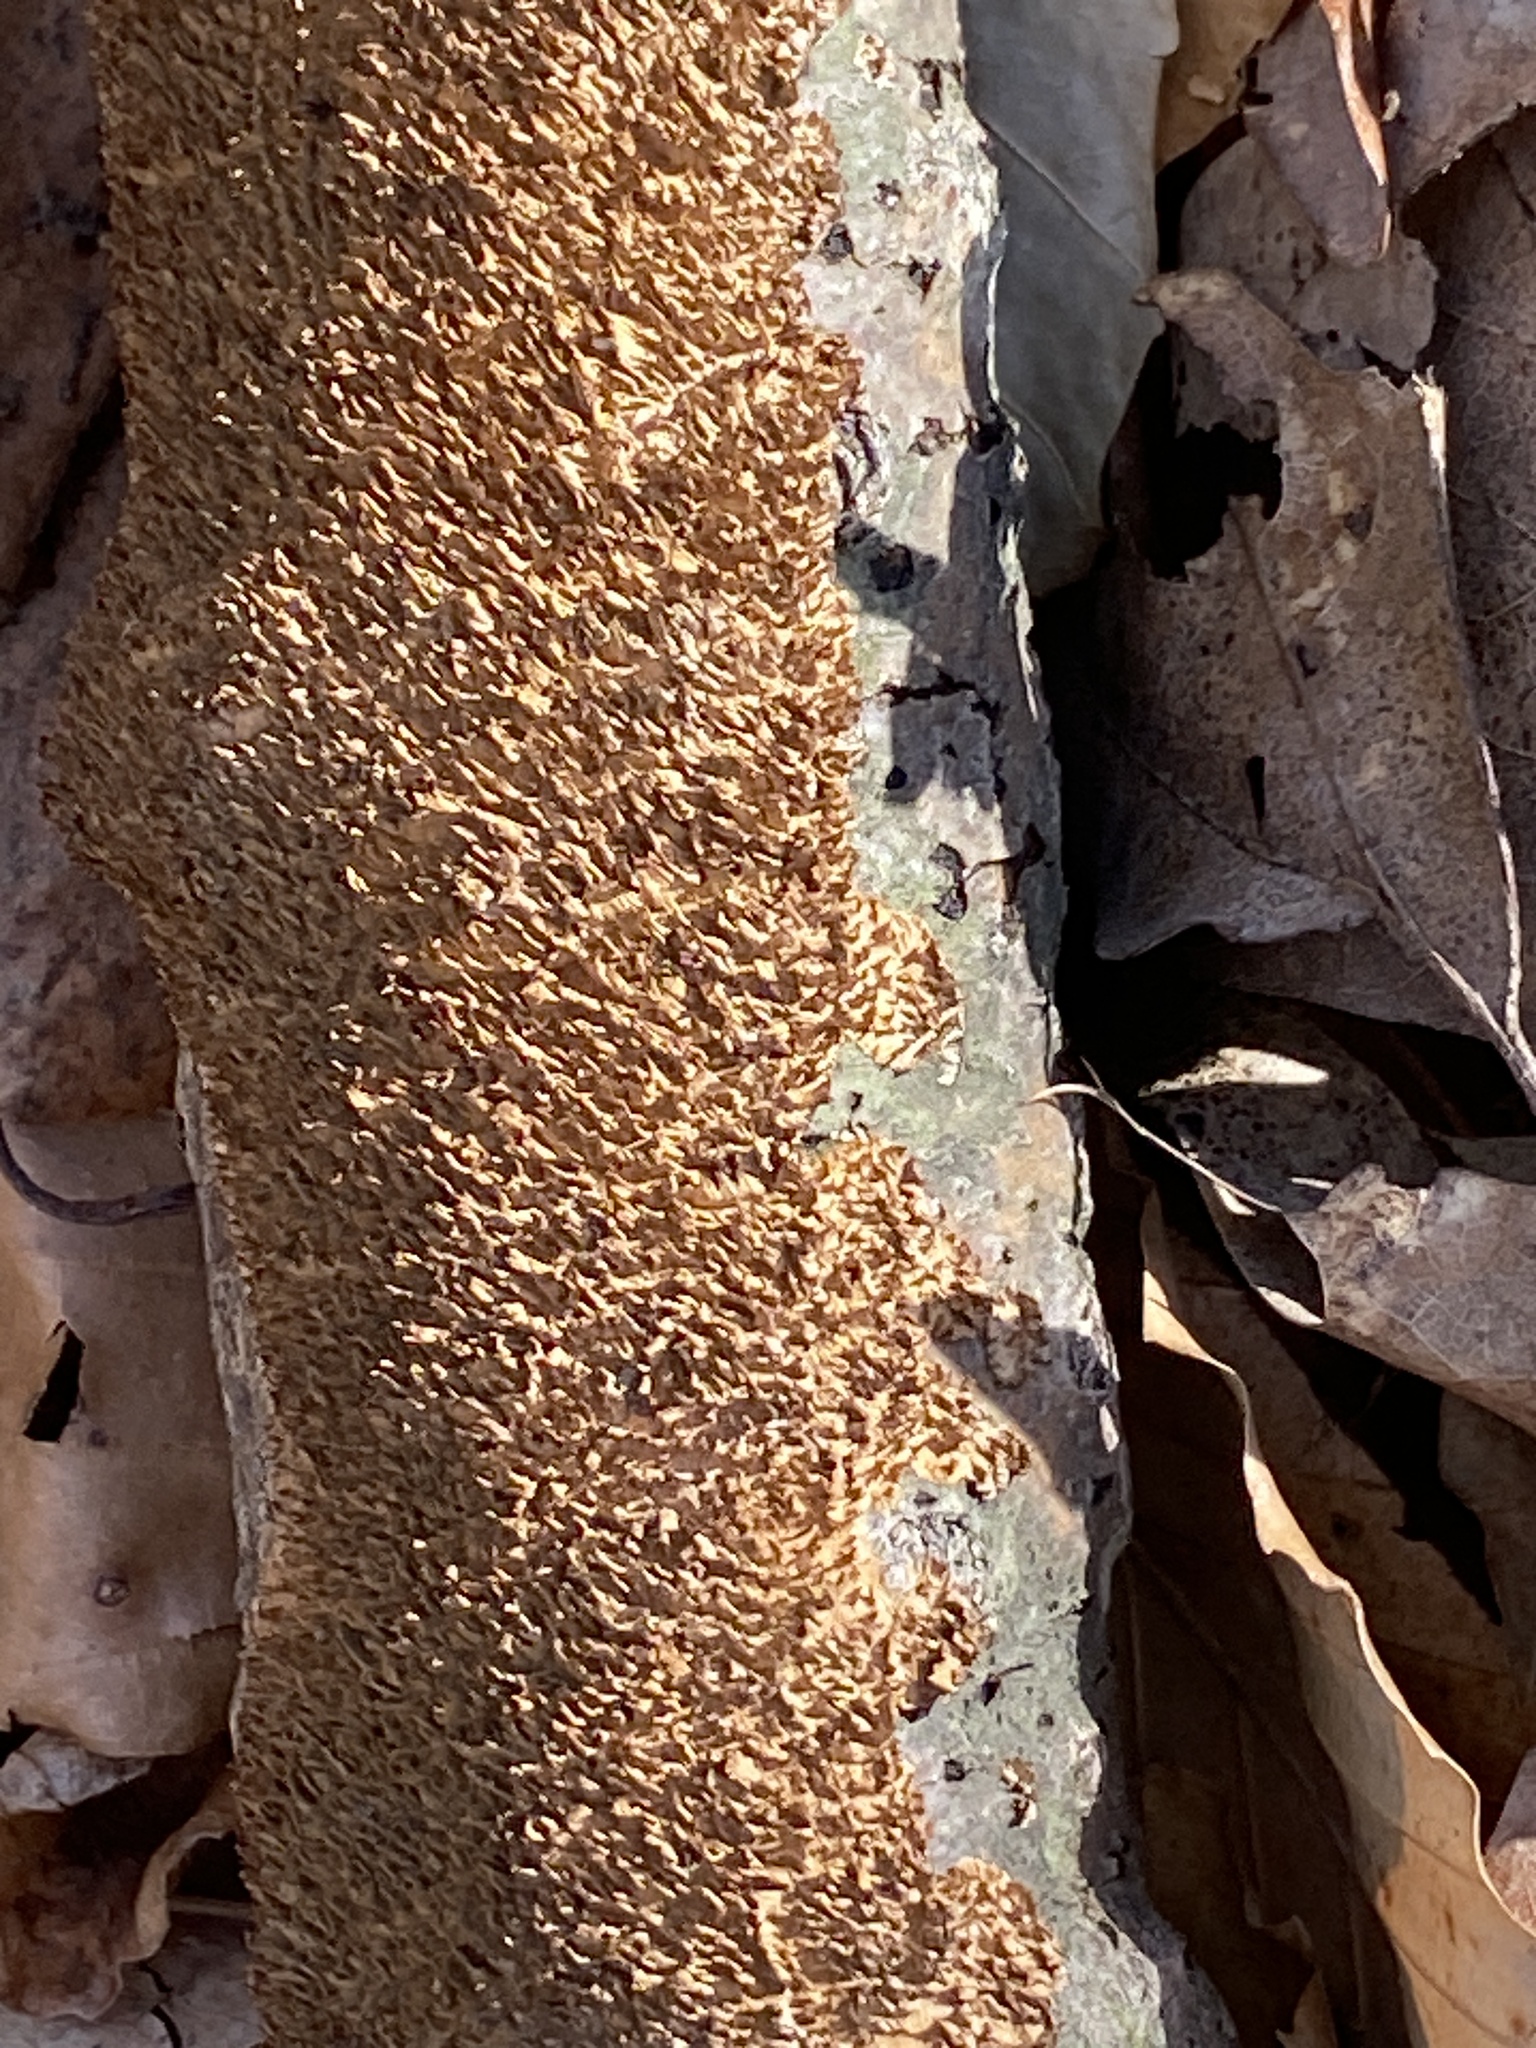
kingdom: Fungi
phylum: Basidiomycota
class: Agaricomycetes
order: Hymenochaetales
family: Hymenochaetaceae
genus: Hydnoporia
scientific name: Hydnoporia olivacea
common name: Brown-toothed crust fungus
